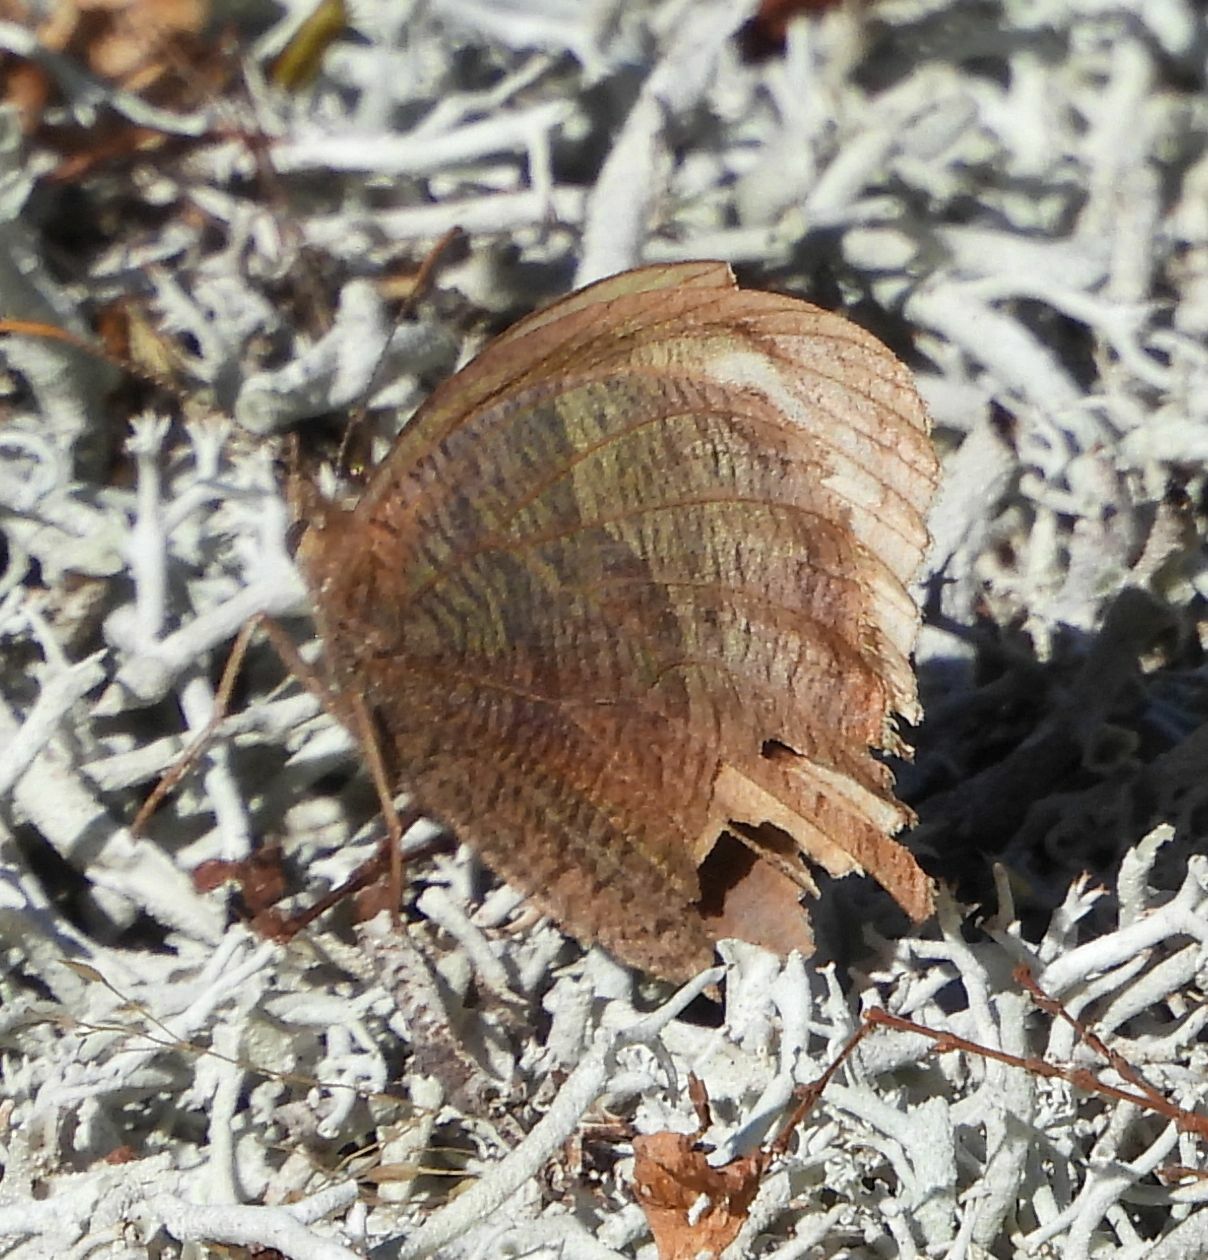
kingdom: Animalia
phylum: Arthropoda
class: Insecta
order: Lepidoptera
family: Nymphalidae
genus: Cercyonis
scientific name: Cercyonis pegala
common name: Common wood-nymph
